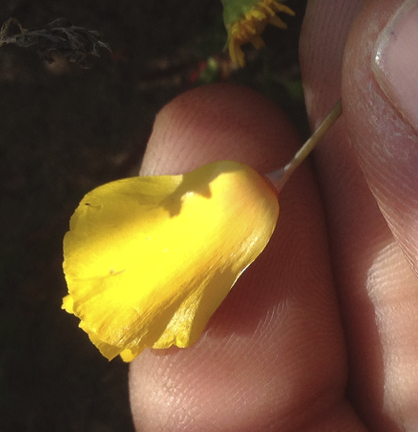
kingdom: Plantae
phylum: Tracheophyta
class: Magnoliopsida
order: Ranunculales
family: Papaveraceae
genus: Eschscholzia
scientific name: Eschscholzia californica
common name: California poppy
